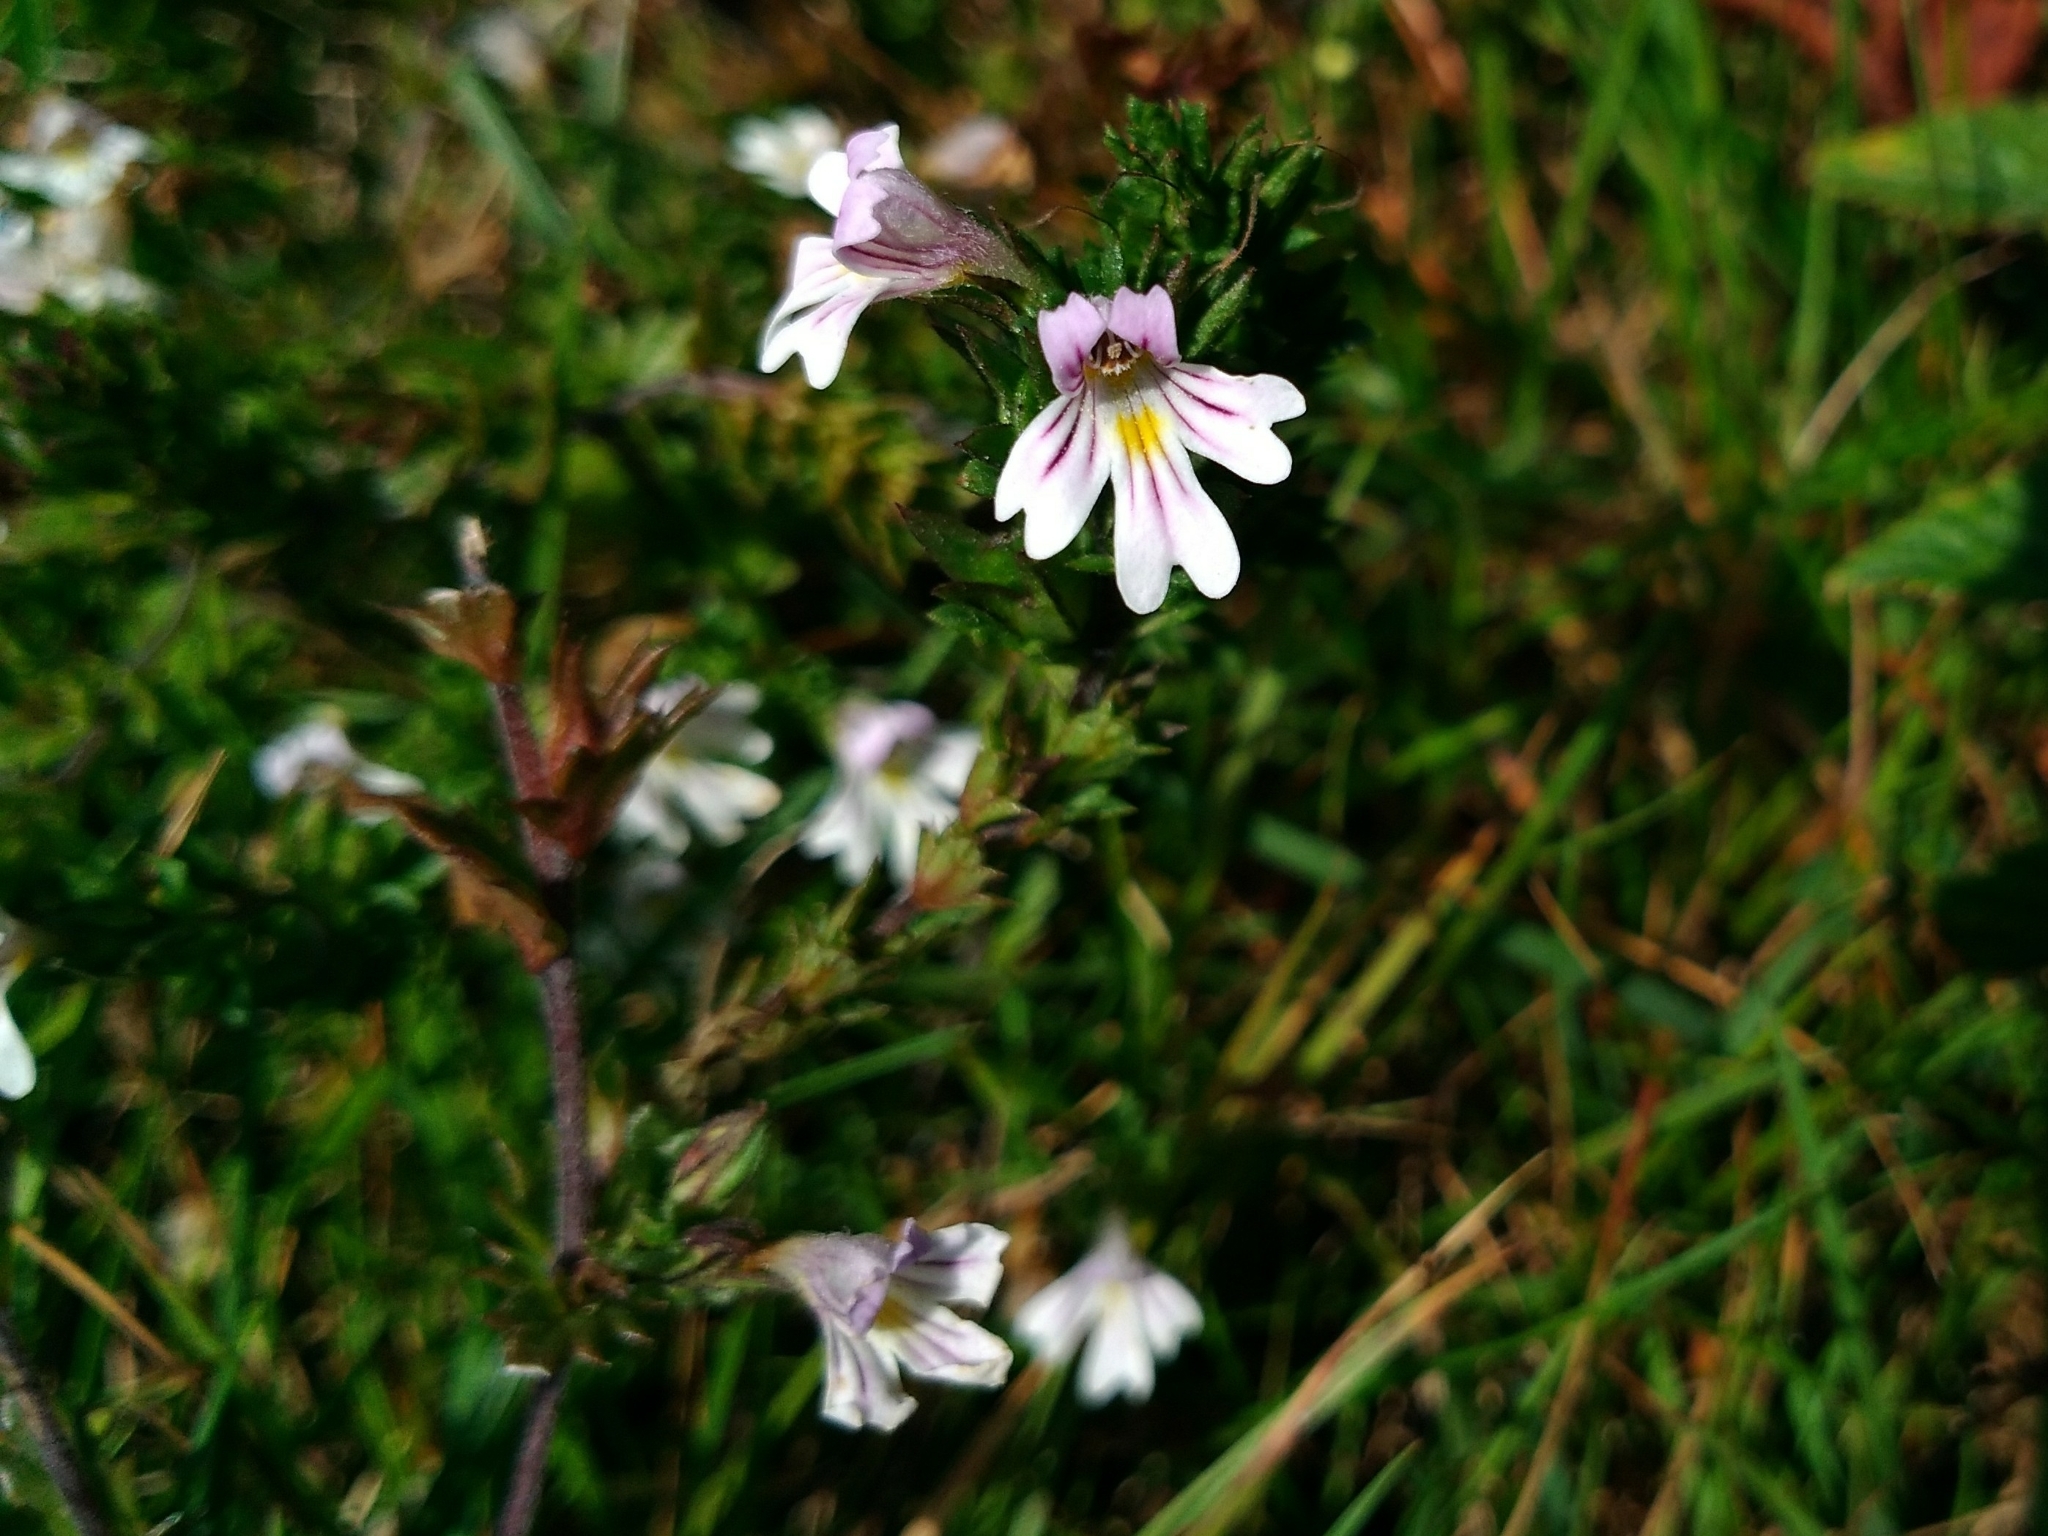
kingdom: Plantae
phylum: Tracheophyta
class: Magnoliopsida
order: Lamiales
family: Orobanchaceae
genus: Euphrasia
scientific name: Euphrasia nemorosa
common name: Common eyebright
